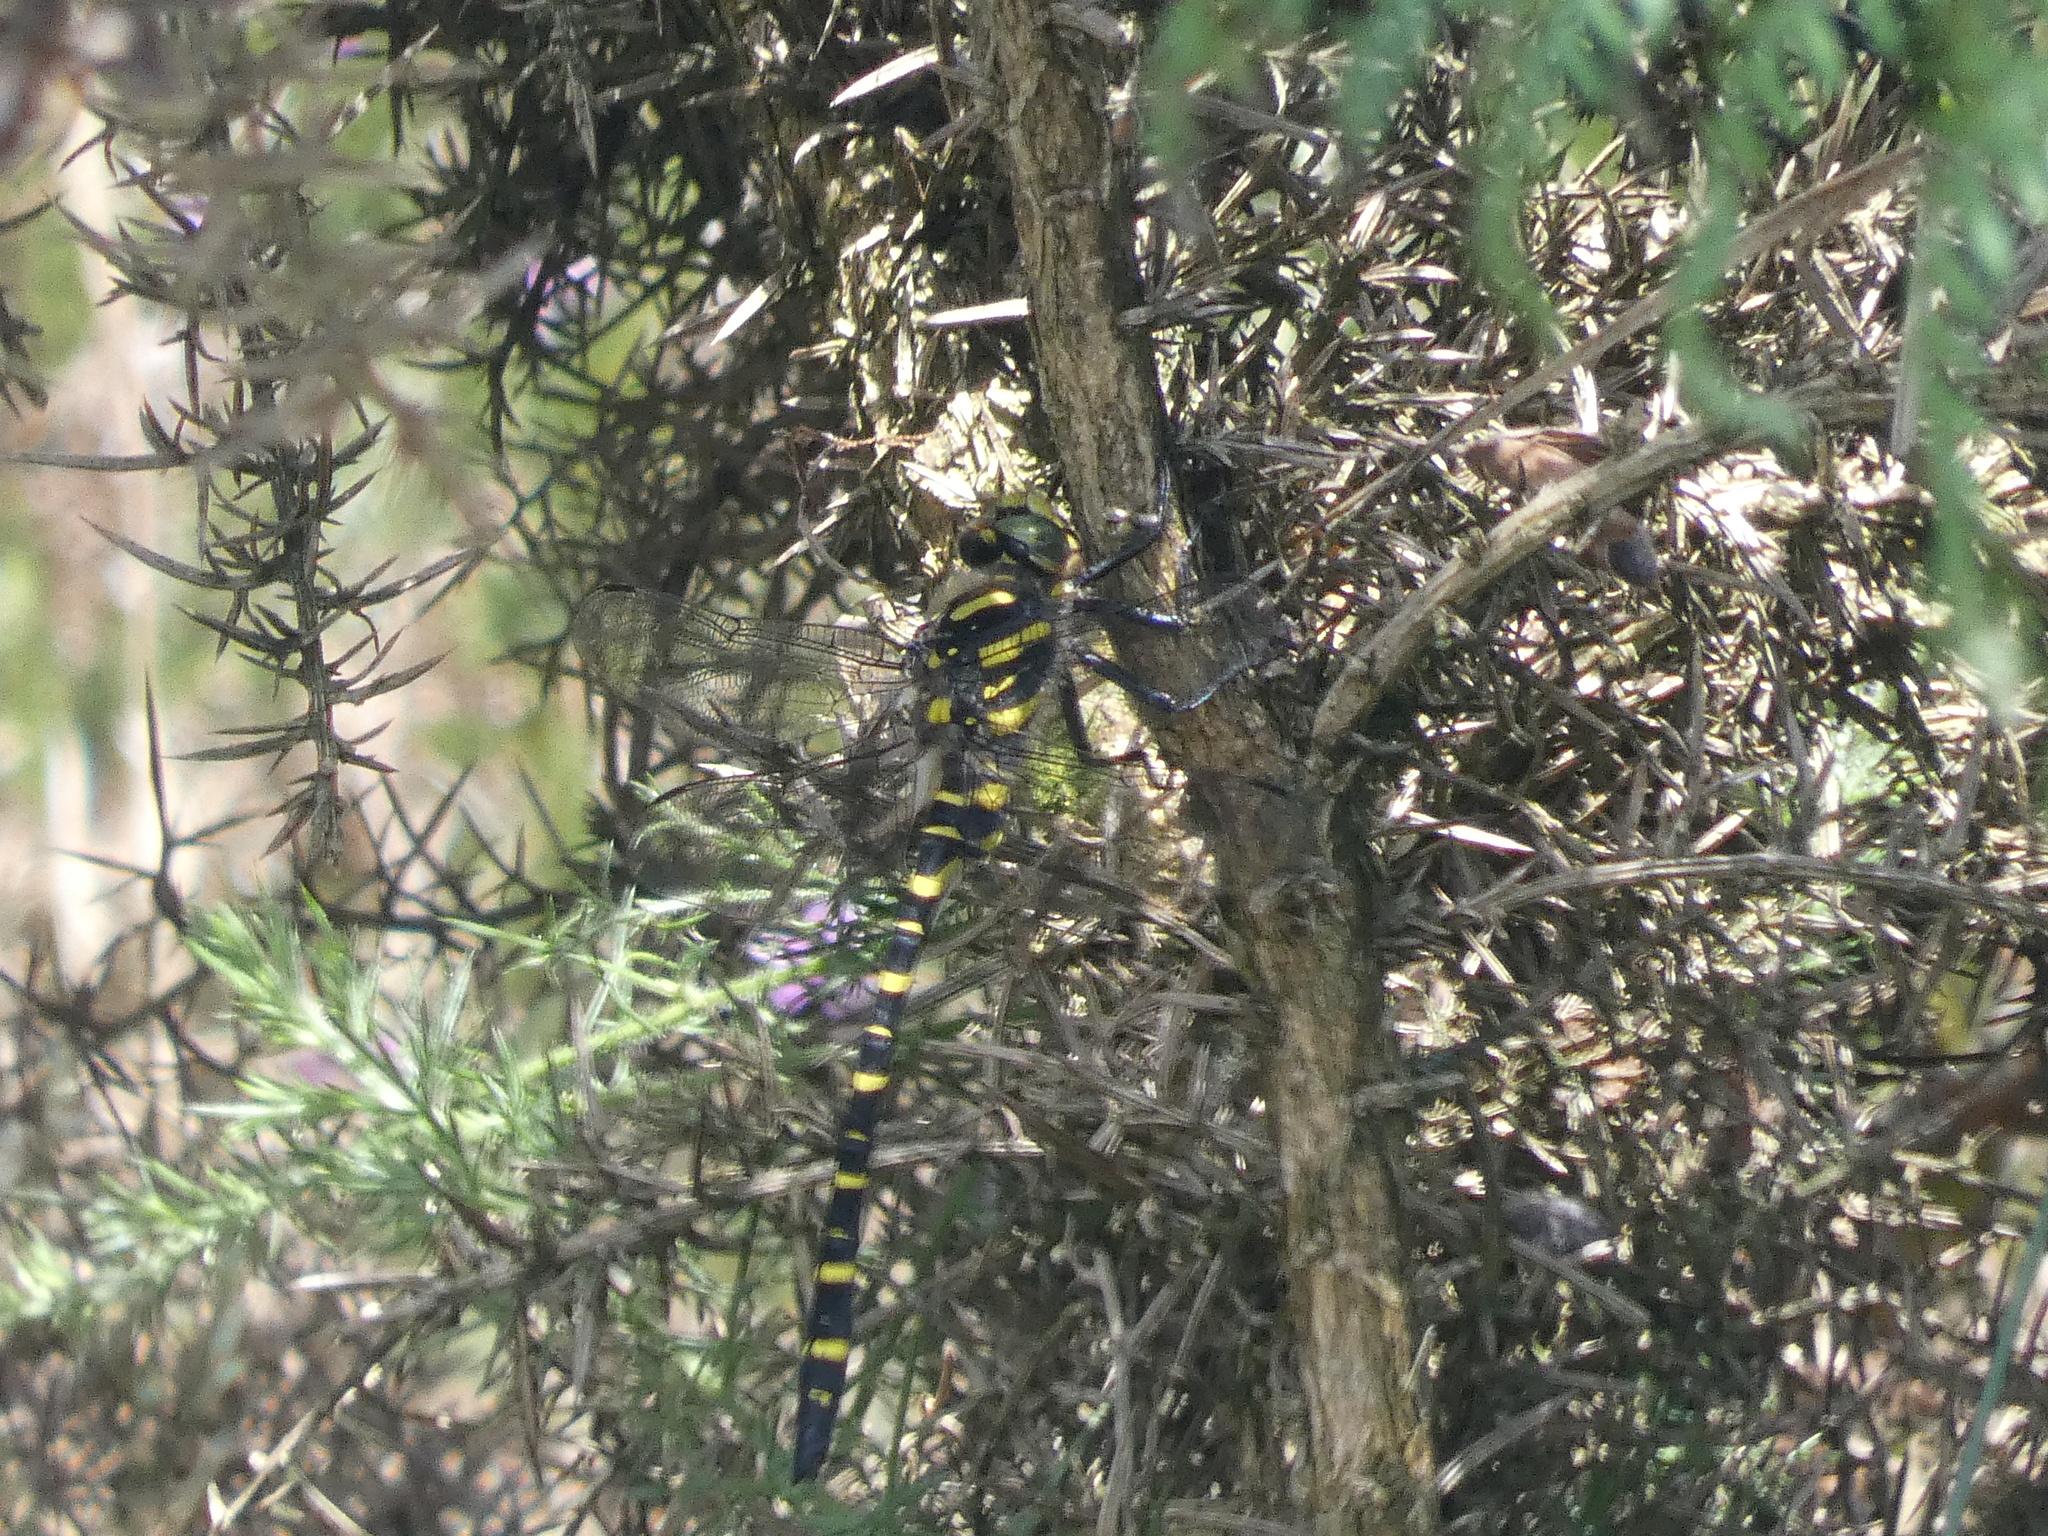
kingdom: Animalia
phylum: Arthropoda
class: Insecta
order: Odonata
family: Cordulegastridae
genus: Cordulegaster
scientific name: Cordulegaster boltonii
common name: Golden-ringed dragonfly
